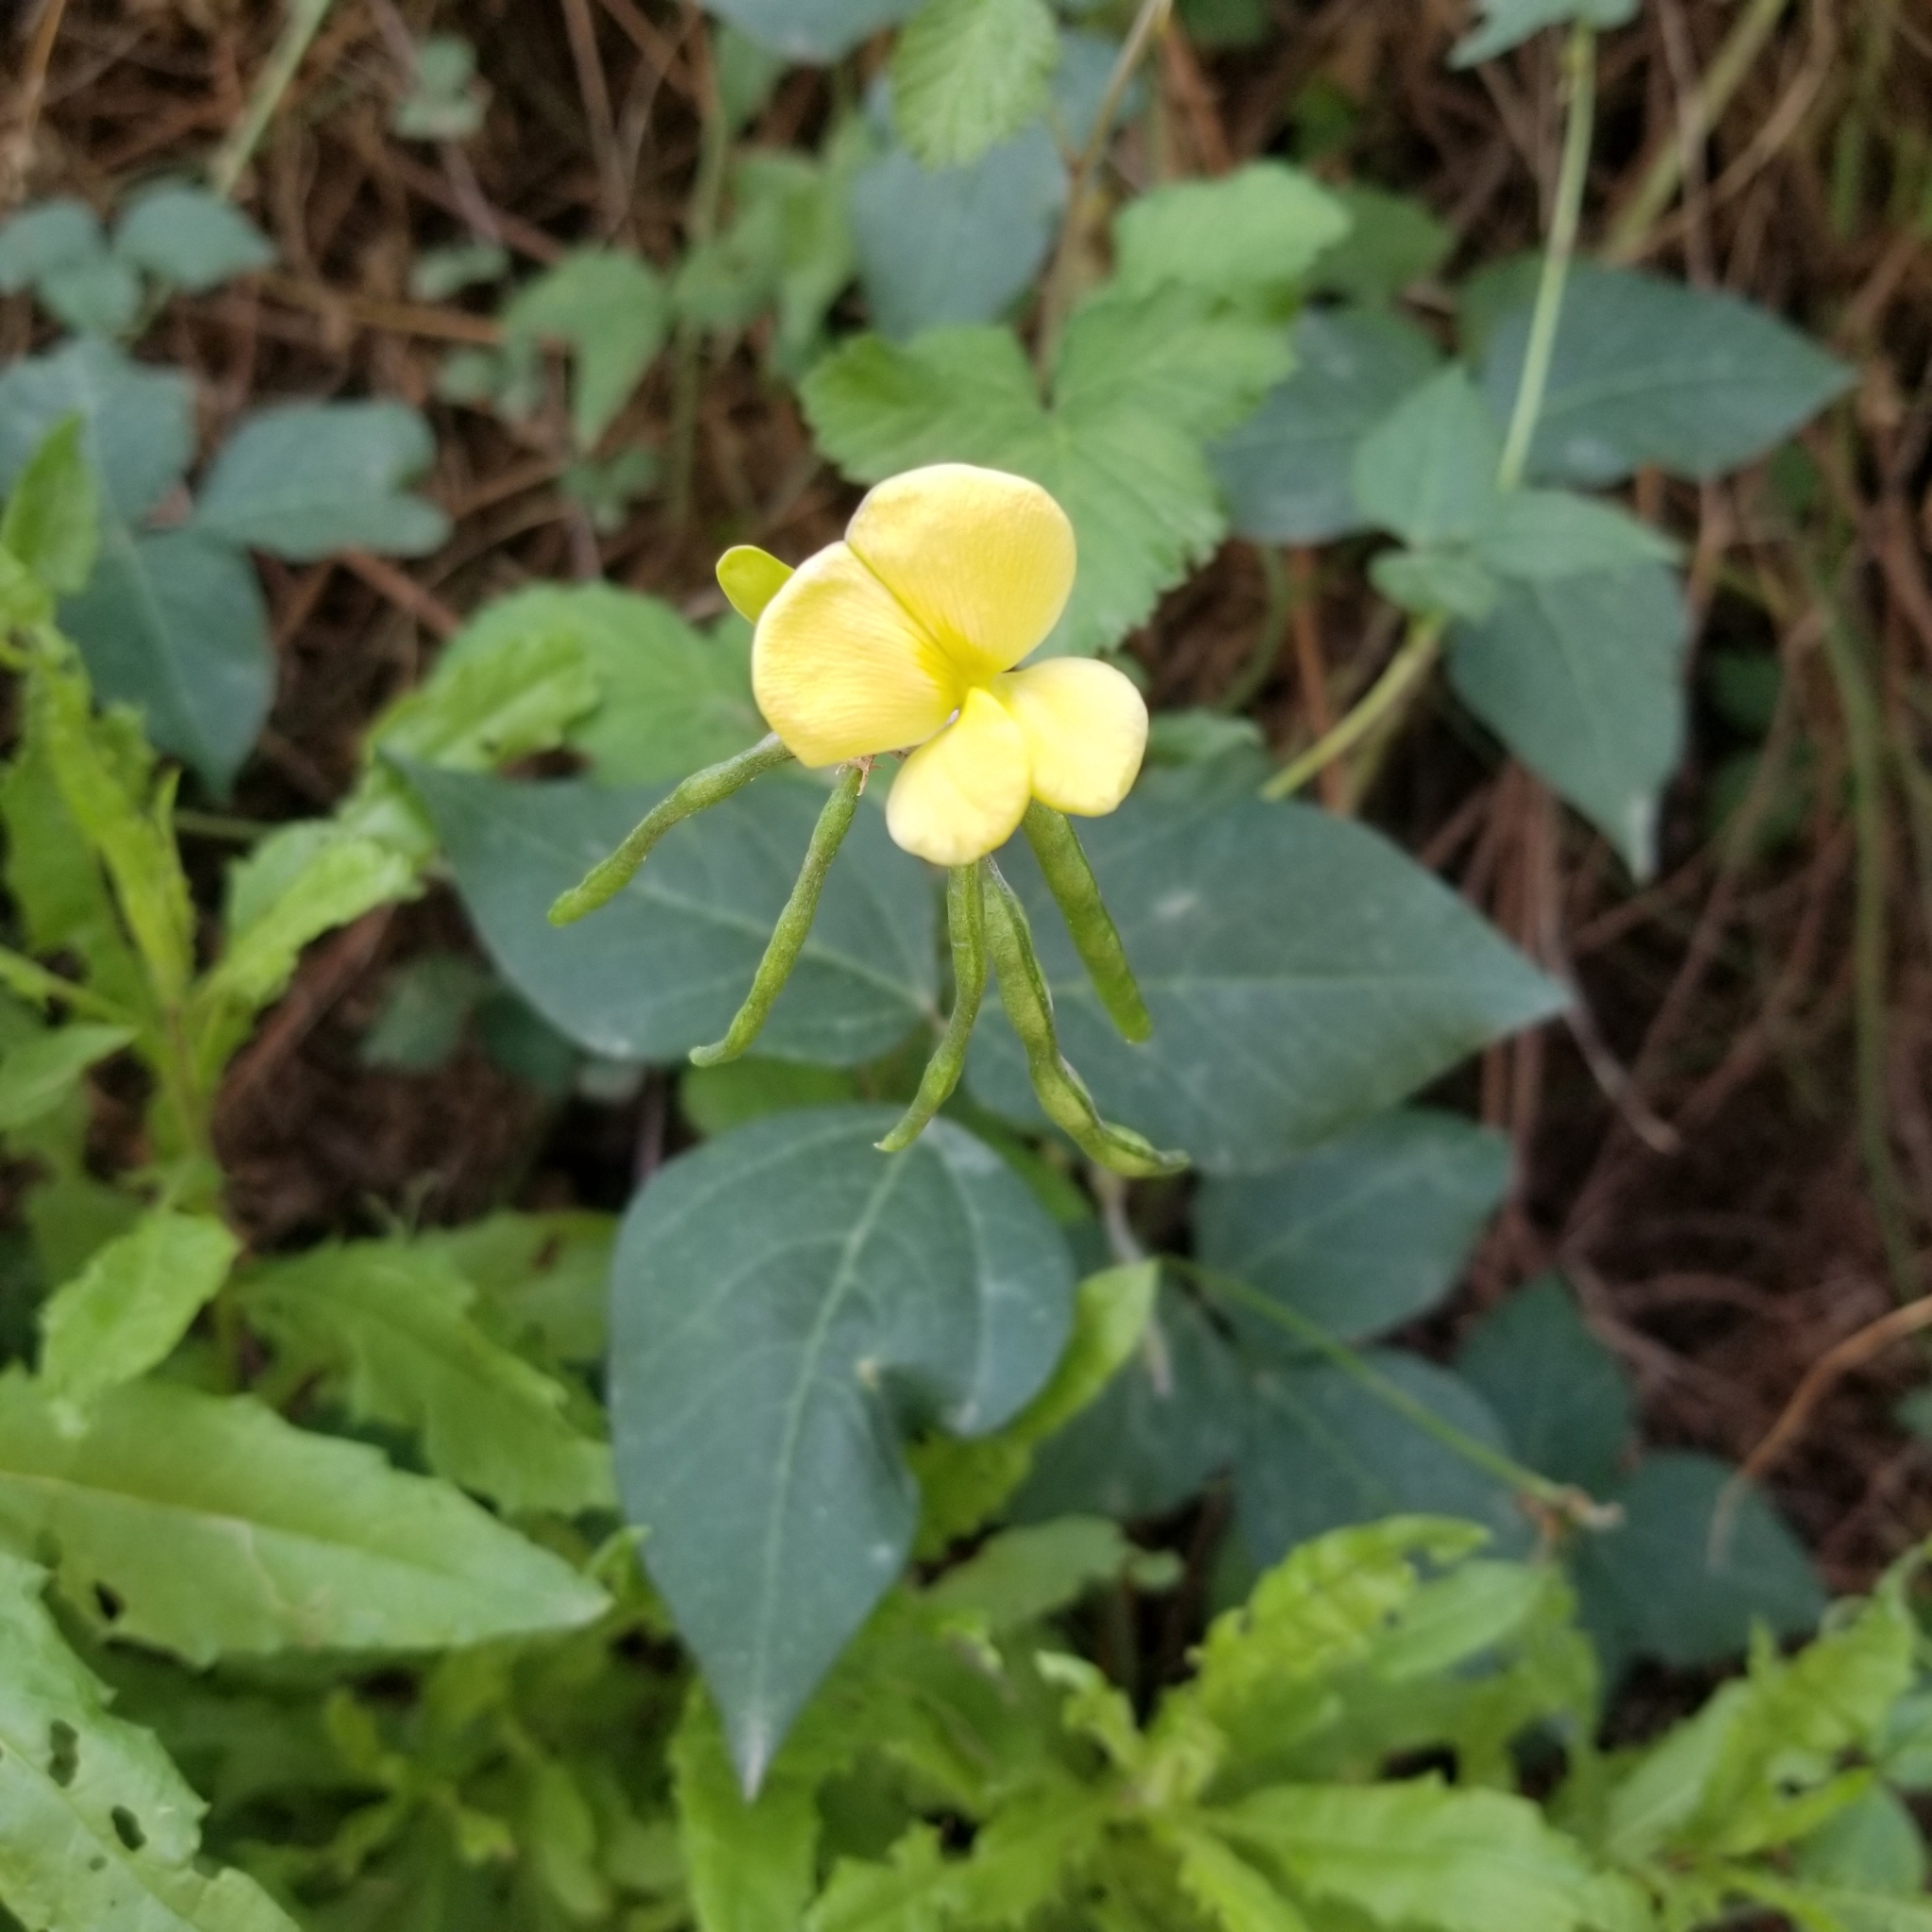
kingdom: Plantae
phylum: Tracheophyta
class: Magnoliopsida
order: Fabales
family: Fabaceae
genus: Vigna
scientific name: Vigna luteola
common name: Hairypod cowpea
